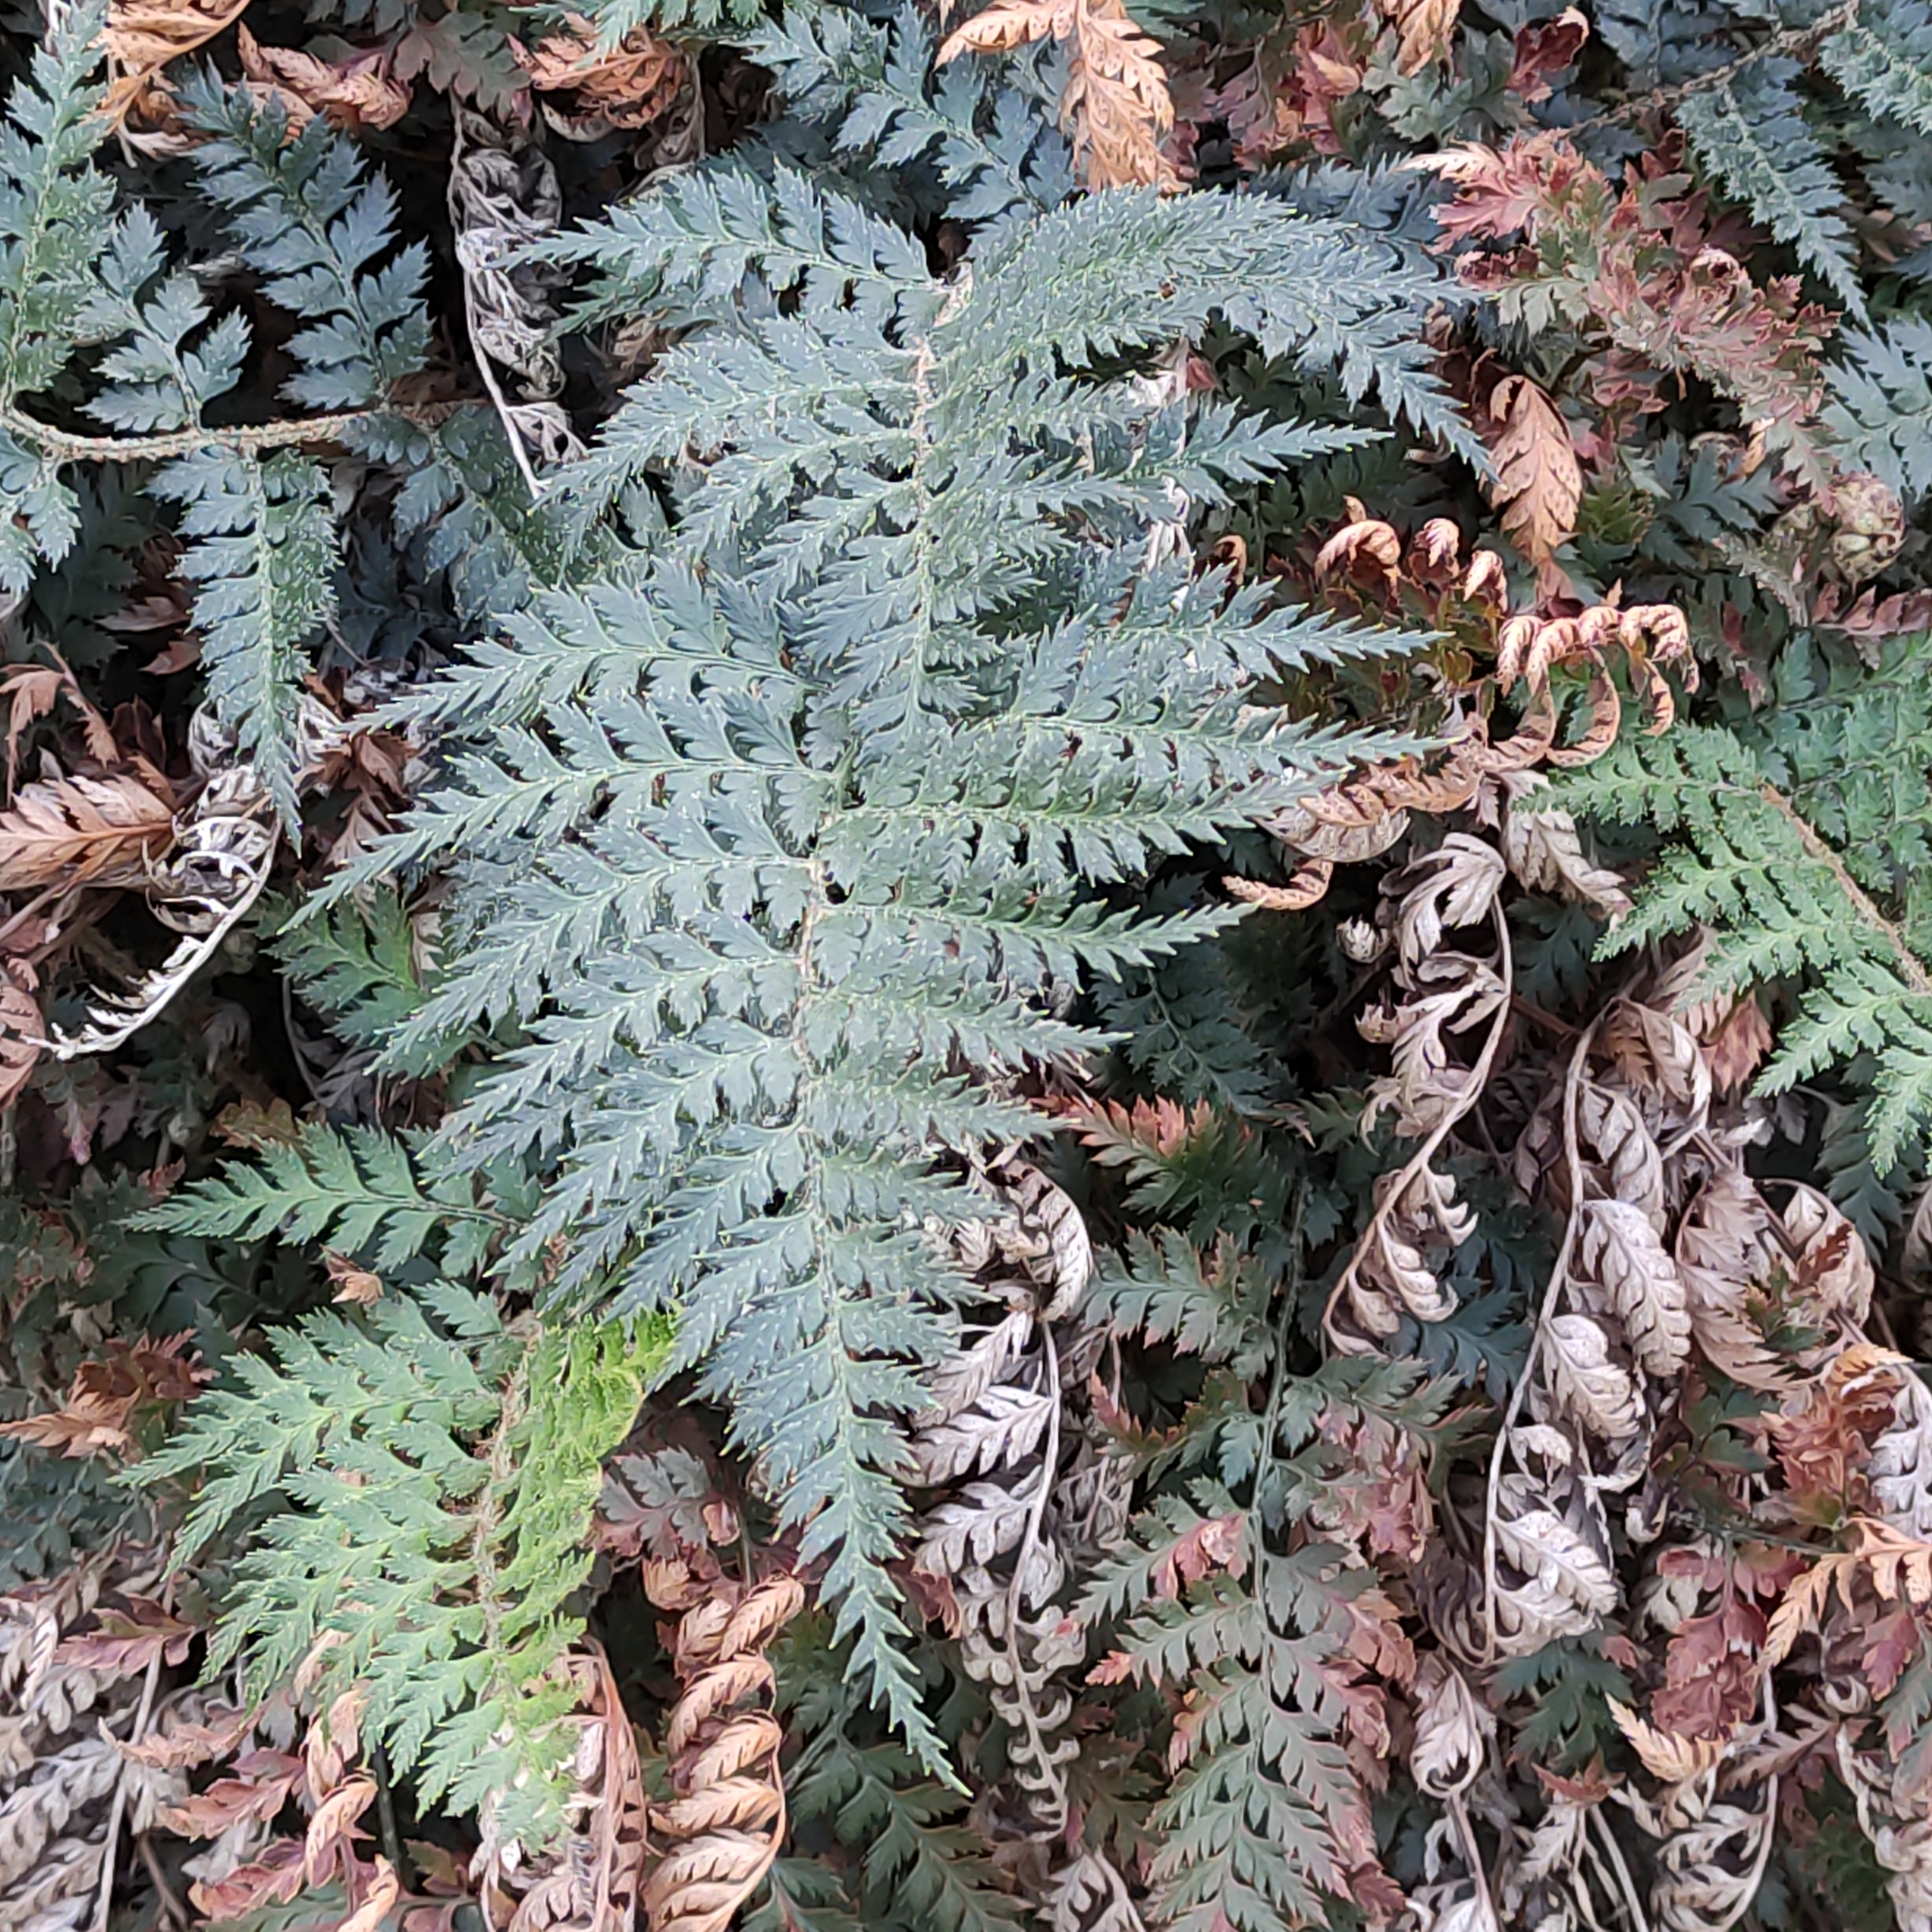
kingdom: Plantae
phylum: Tracheophyta
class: Polypodiopsida
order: Polypodiales
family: Dryopteridaceae
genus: Polystichum
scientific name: Polystichum oculatum
